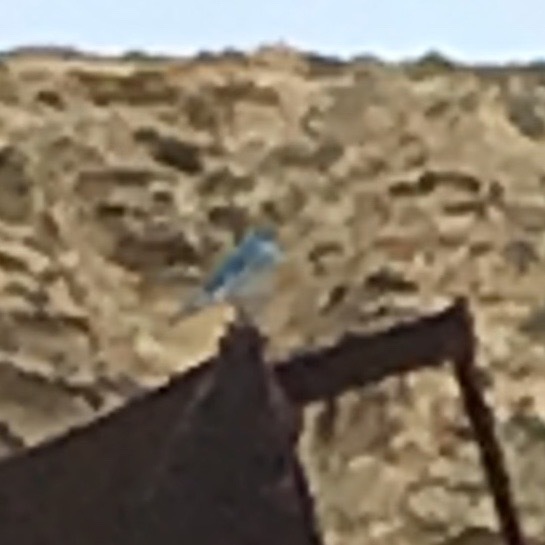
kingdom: Animalia
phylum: Chordata
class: Aves
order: Passeriformes
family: Turdidae
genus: Sialia
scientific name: Sialia currucoides
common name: Mountain bluebird
